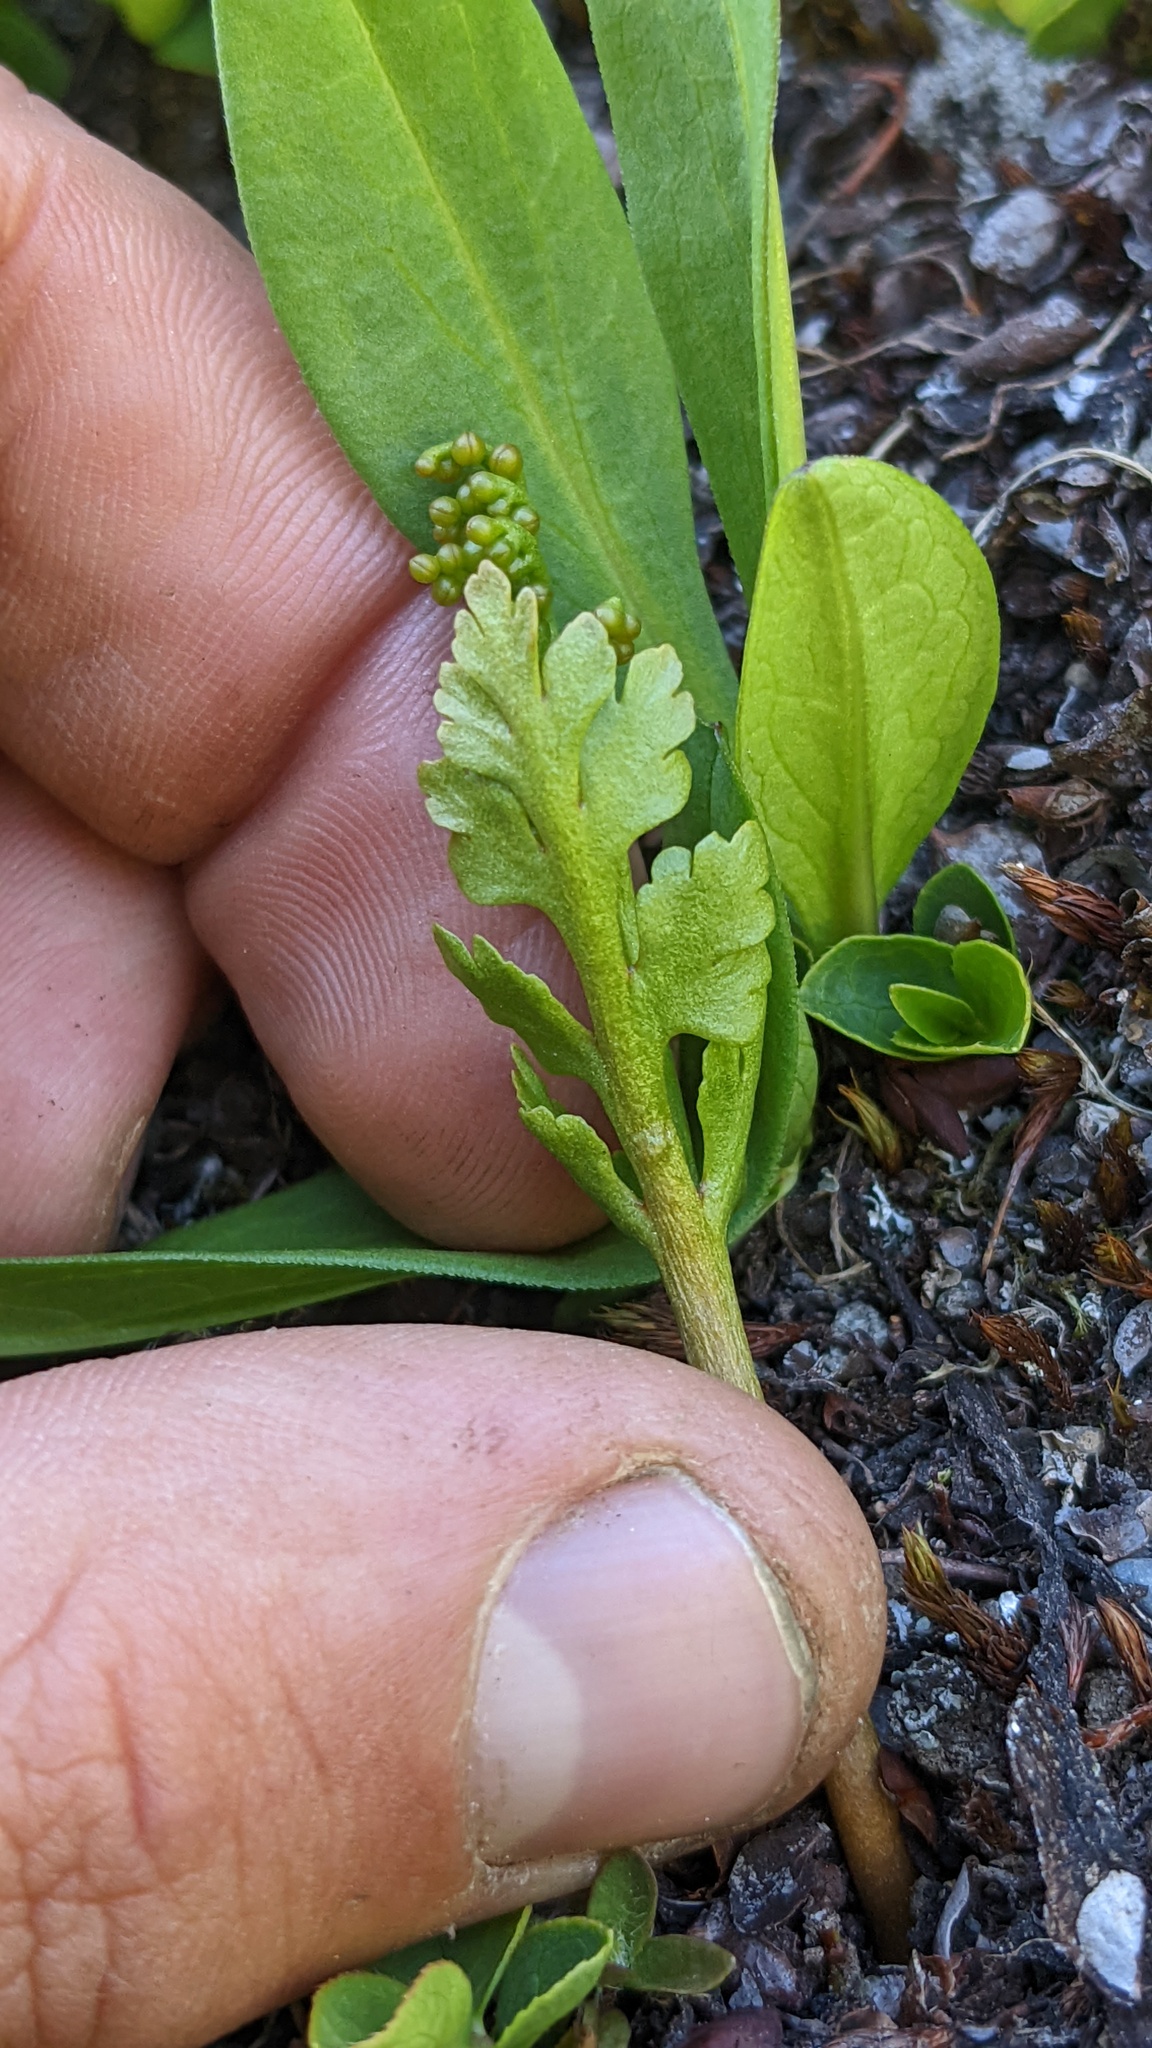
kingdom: Plantae
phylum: Tracheophyta
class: Polypodiopsida
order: Ophioglossales
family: Ophioglossaceae
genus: Botrychium
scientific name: Botrychium pinnatum
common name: Northwestern moonwort
